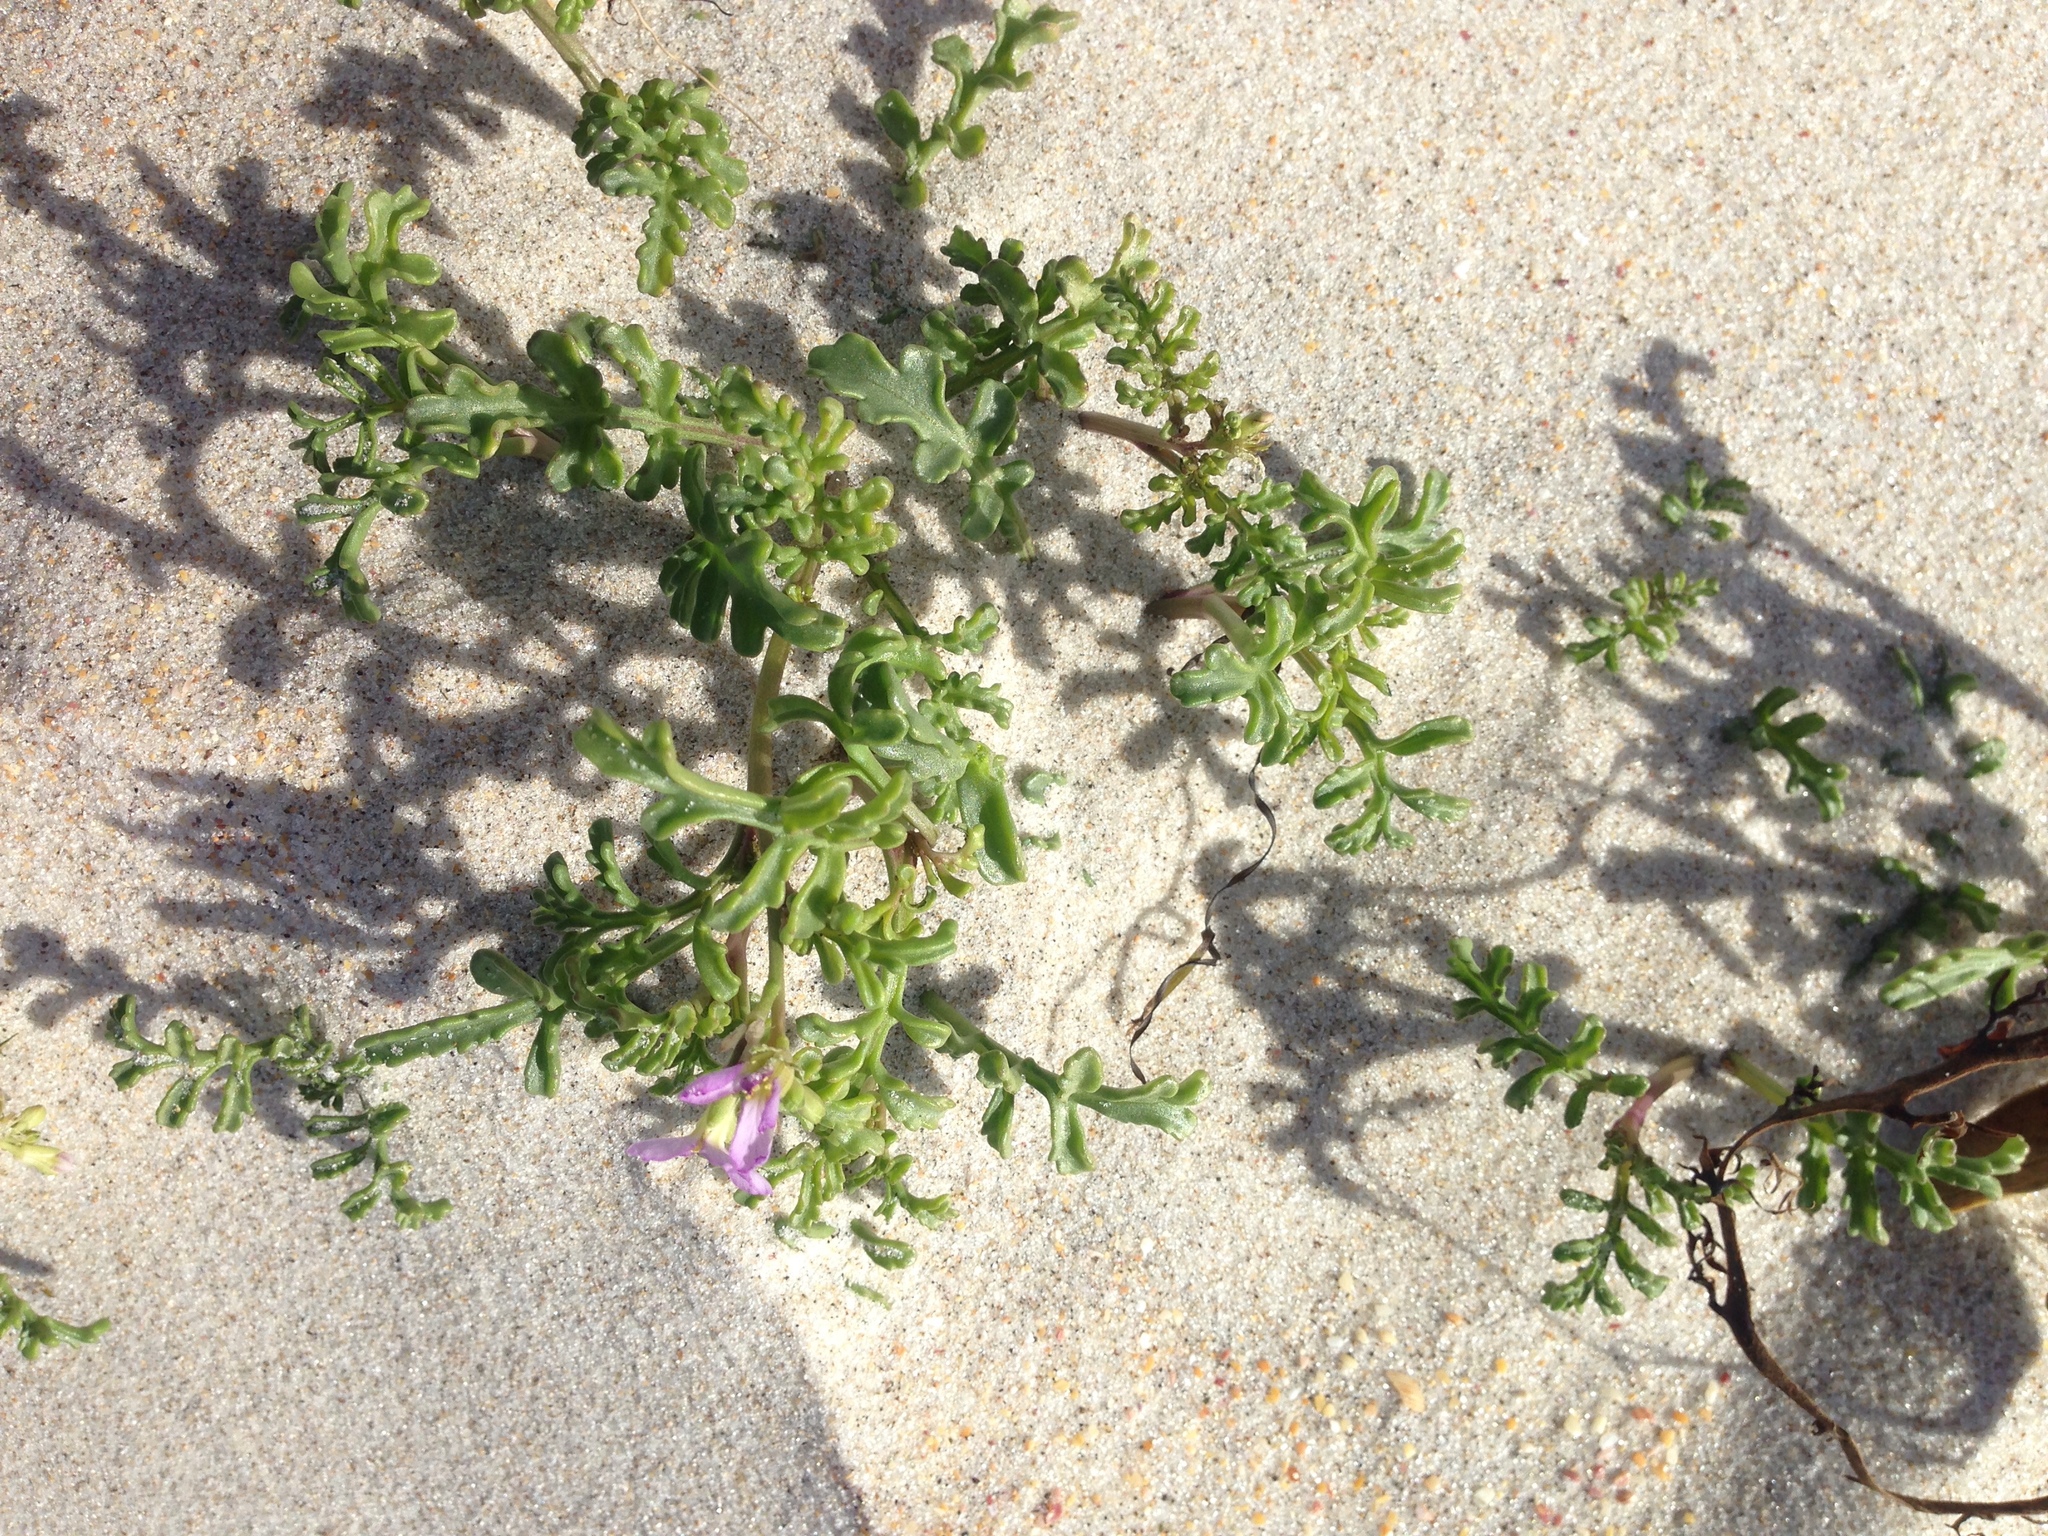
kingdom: Plantae
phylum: Tracheophyta
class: Magnoliopsida
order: Brassicales
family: Brassicaceae
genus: Cakile
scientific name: Cakile maritima
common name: Sea rocket
